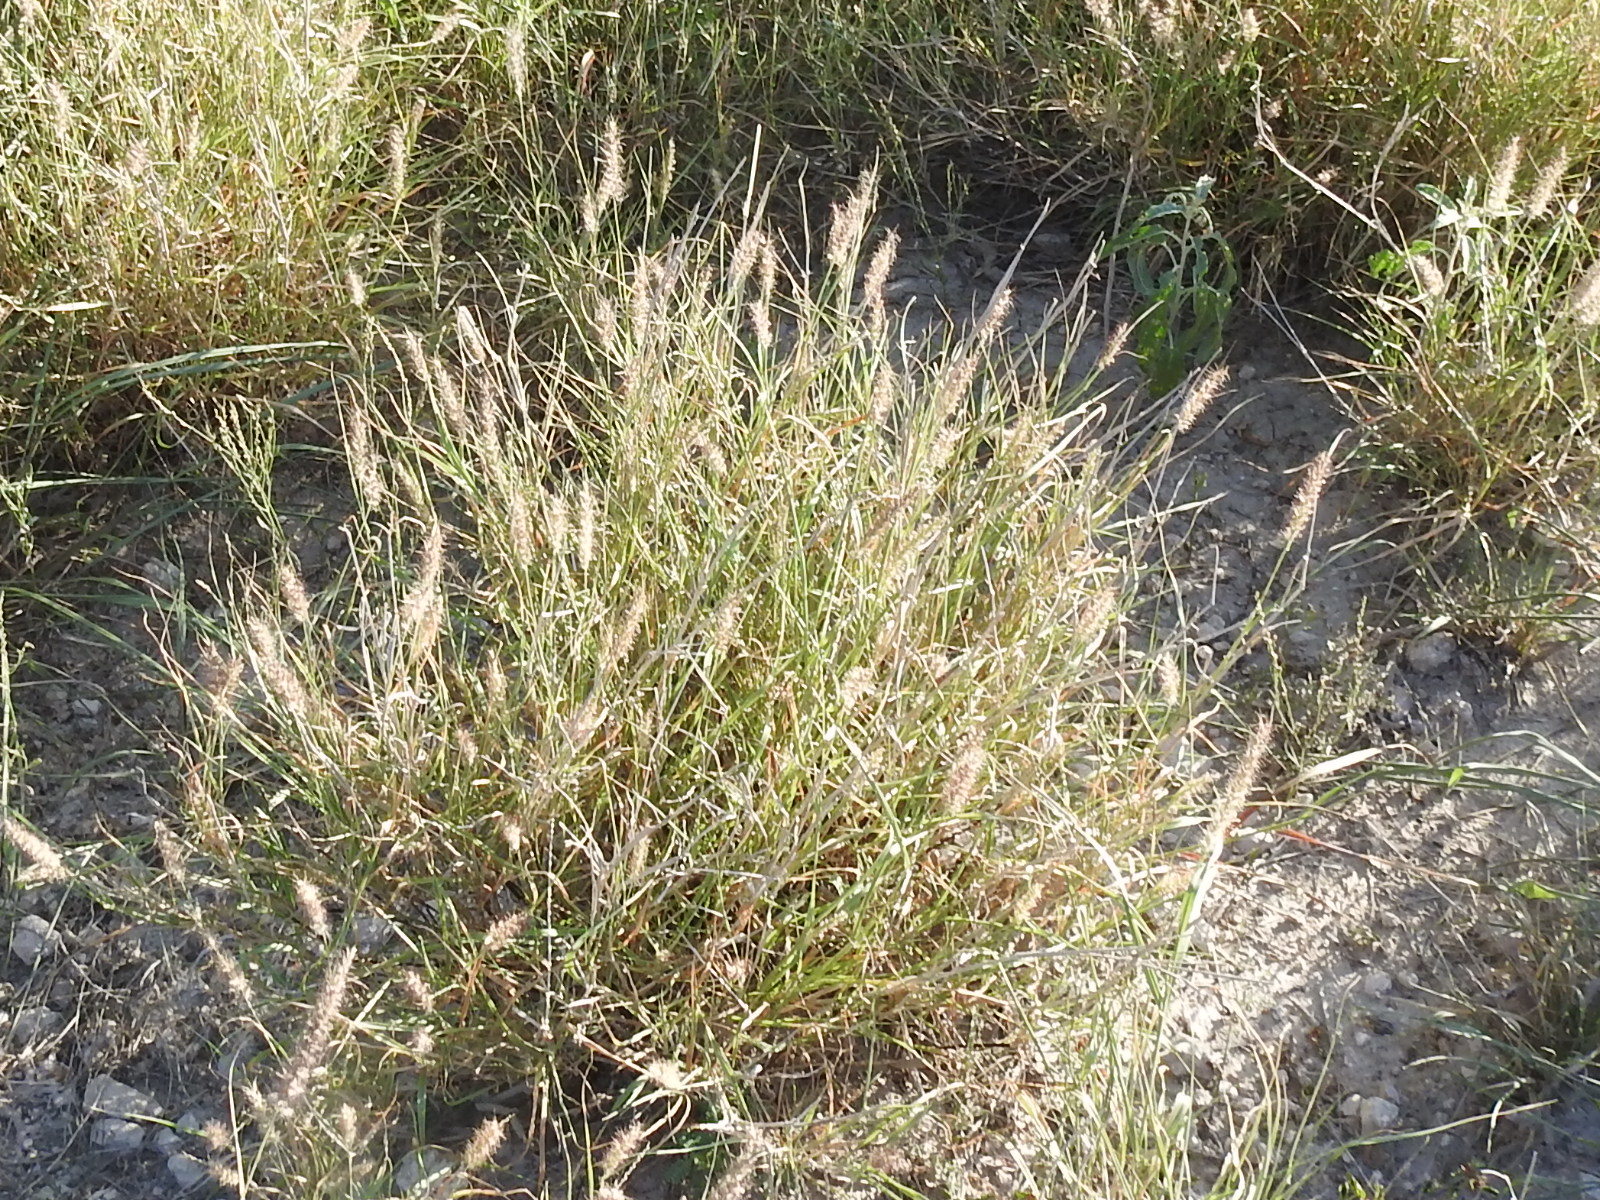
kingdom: Plantae
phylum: Tracheophyta
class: Liliopsida
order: Poales
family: Poaceae
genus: Cenchrus
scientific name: Cenchrus ciliaris
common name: Buffelgrass
